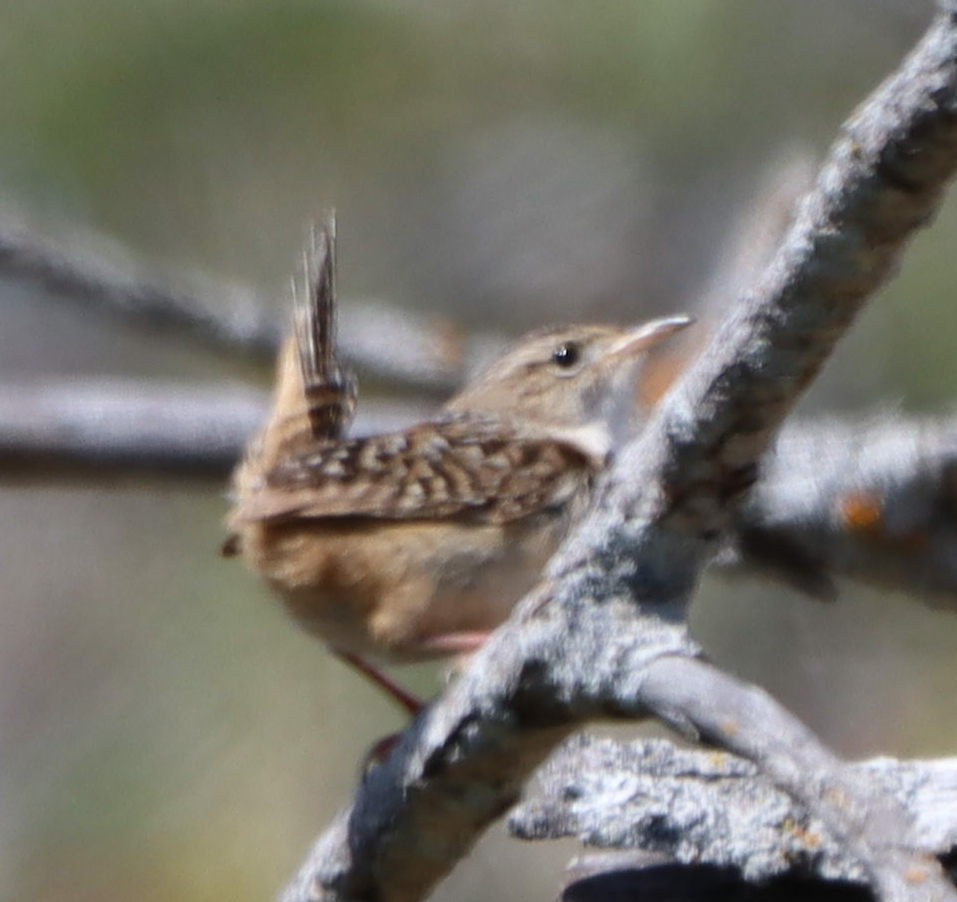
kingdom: Animalia
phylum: Chordata
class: Aves
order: Passeriformes
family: Troglodytidae
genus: Cistothorus
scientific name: Cistothorus platensis
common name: Sedge wren
